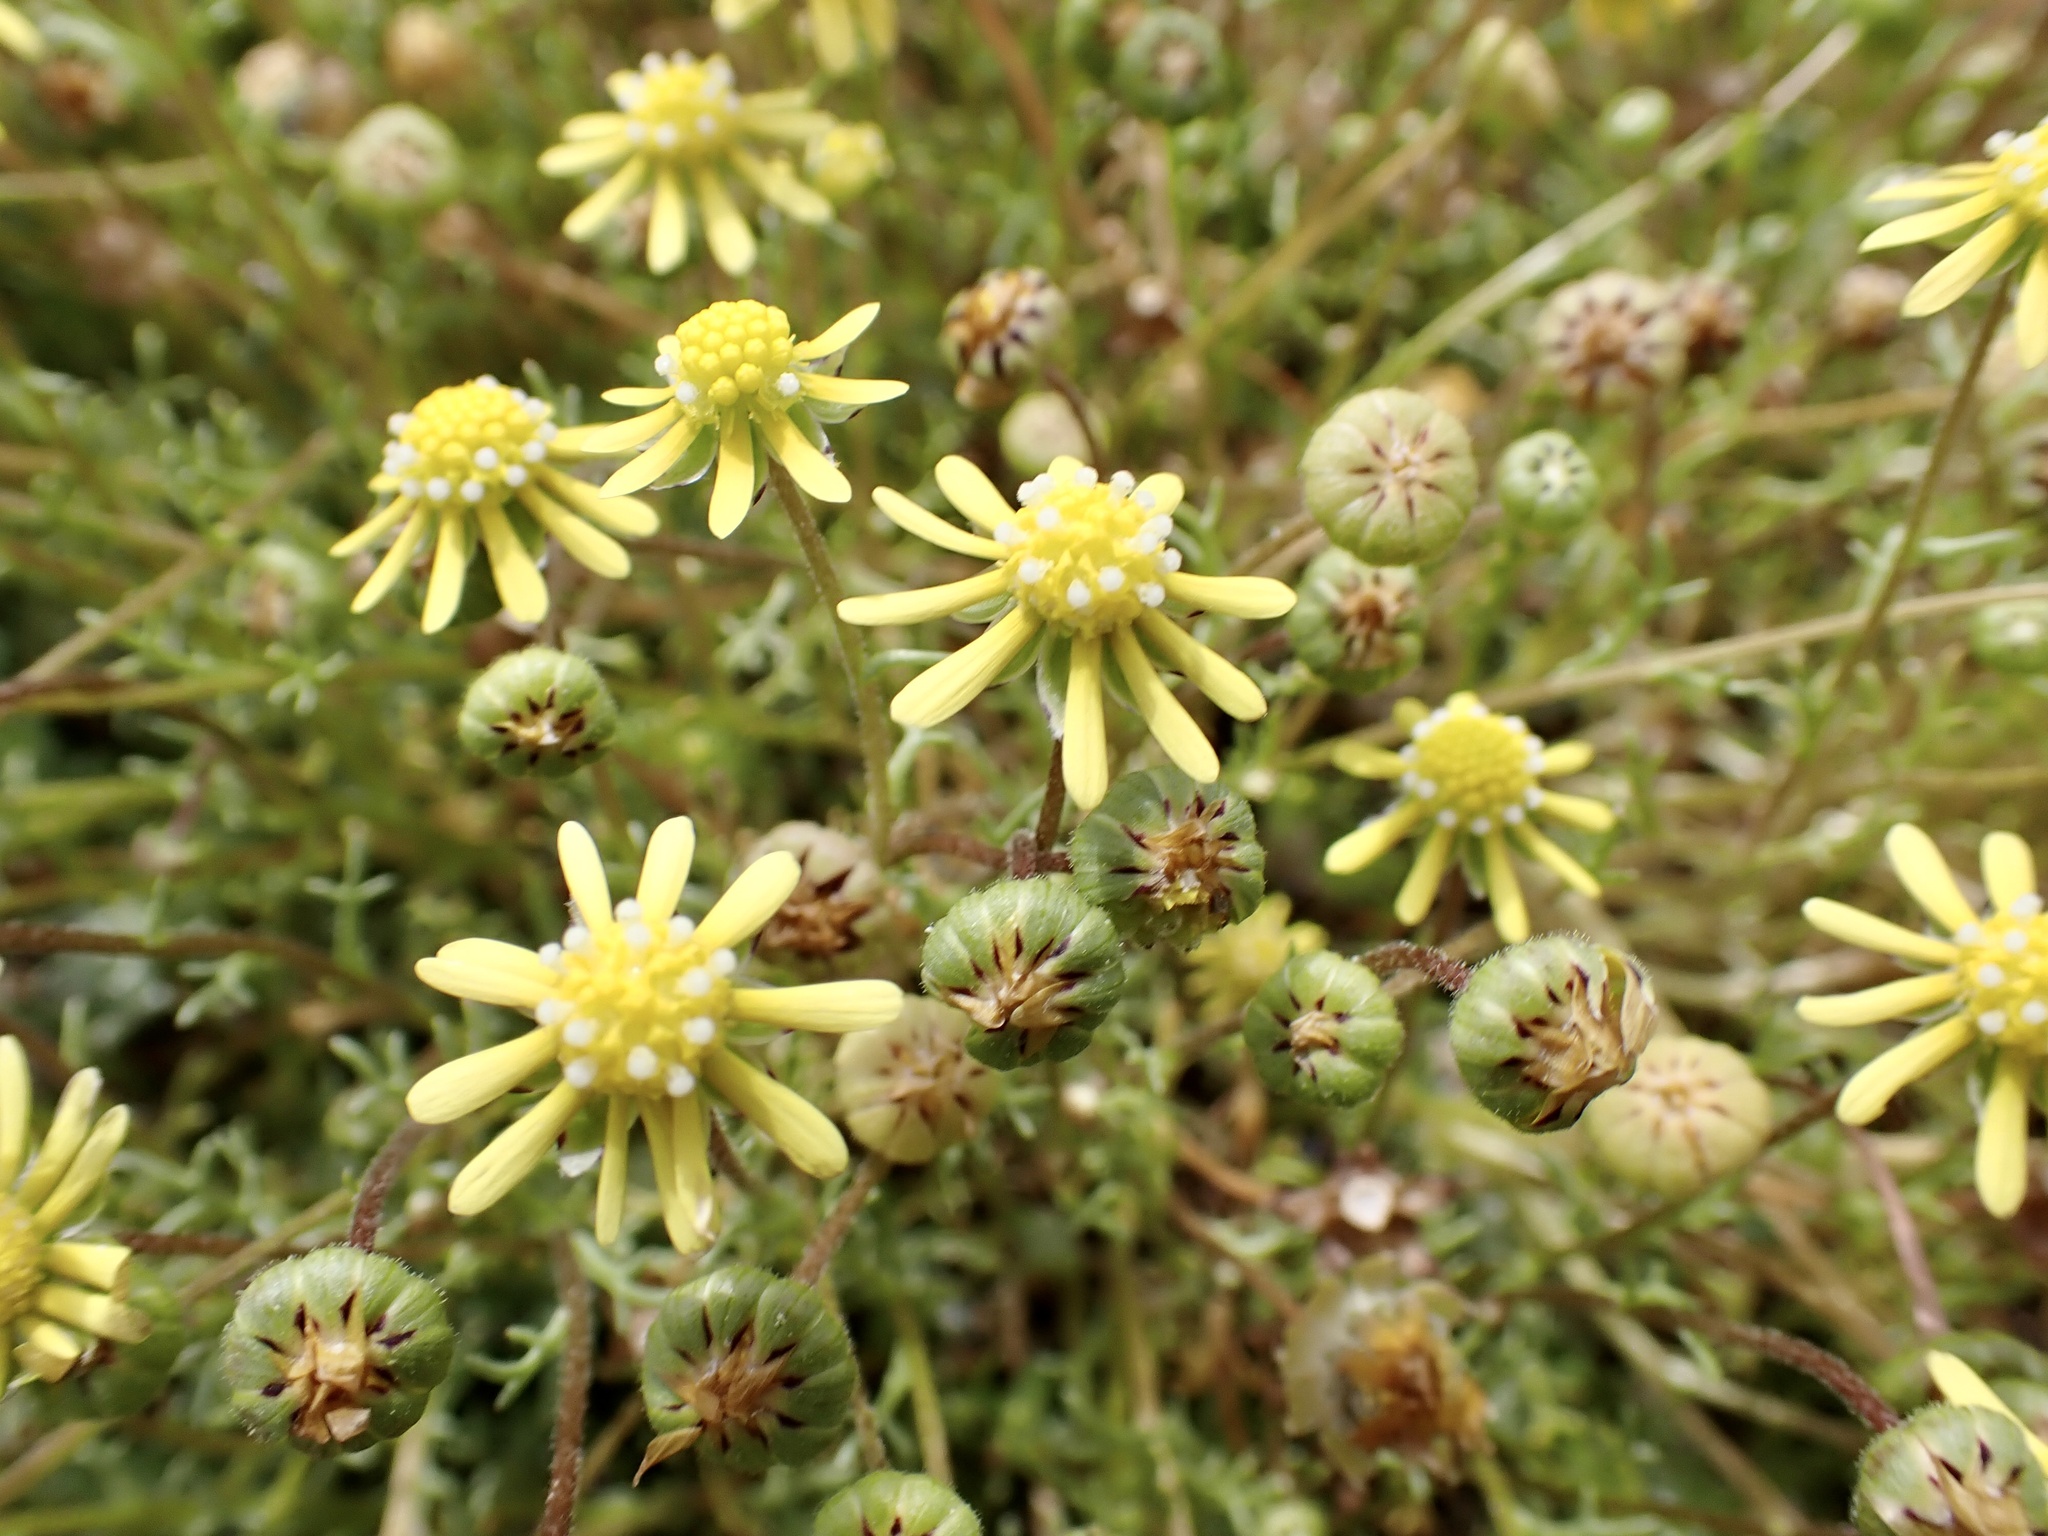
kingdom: Plantae
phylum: Tracheophyta
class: Magnoliopsida
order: Asterales
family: Asteraceae
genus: Blennosperma
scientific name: Blennosperma nanum
